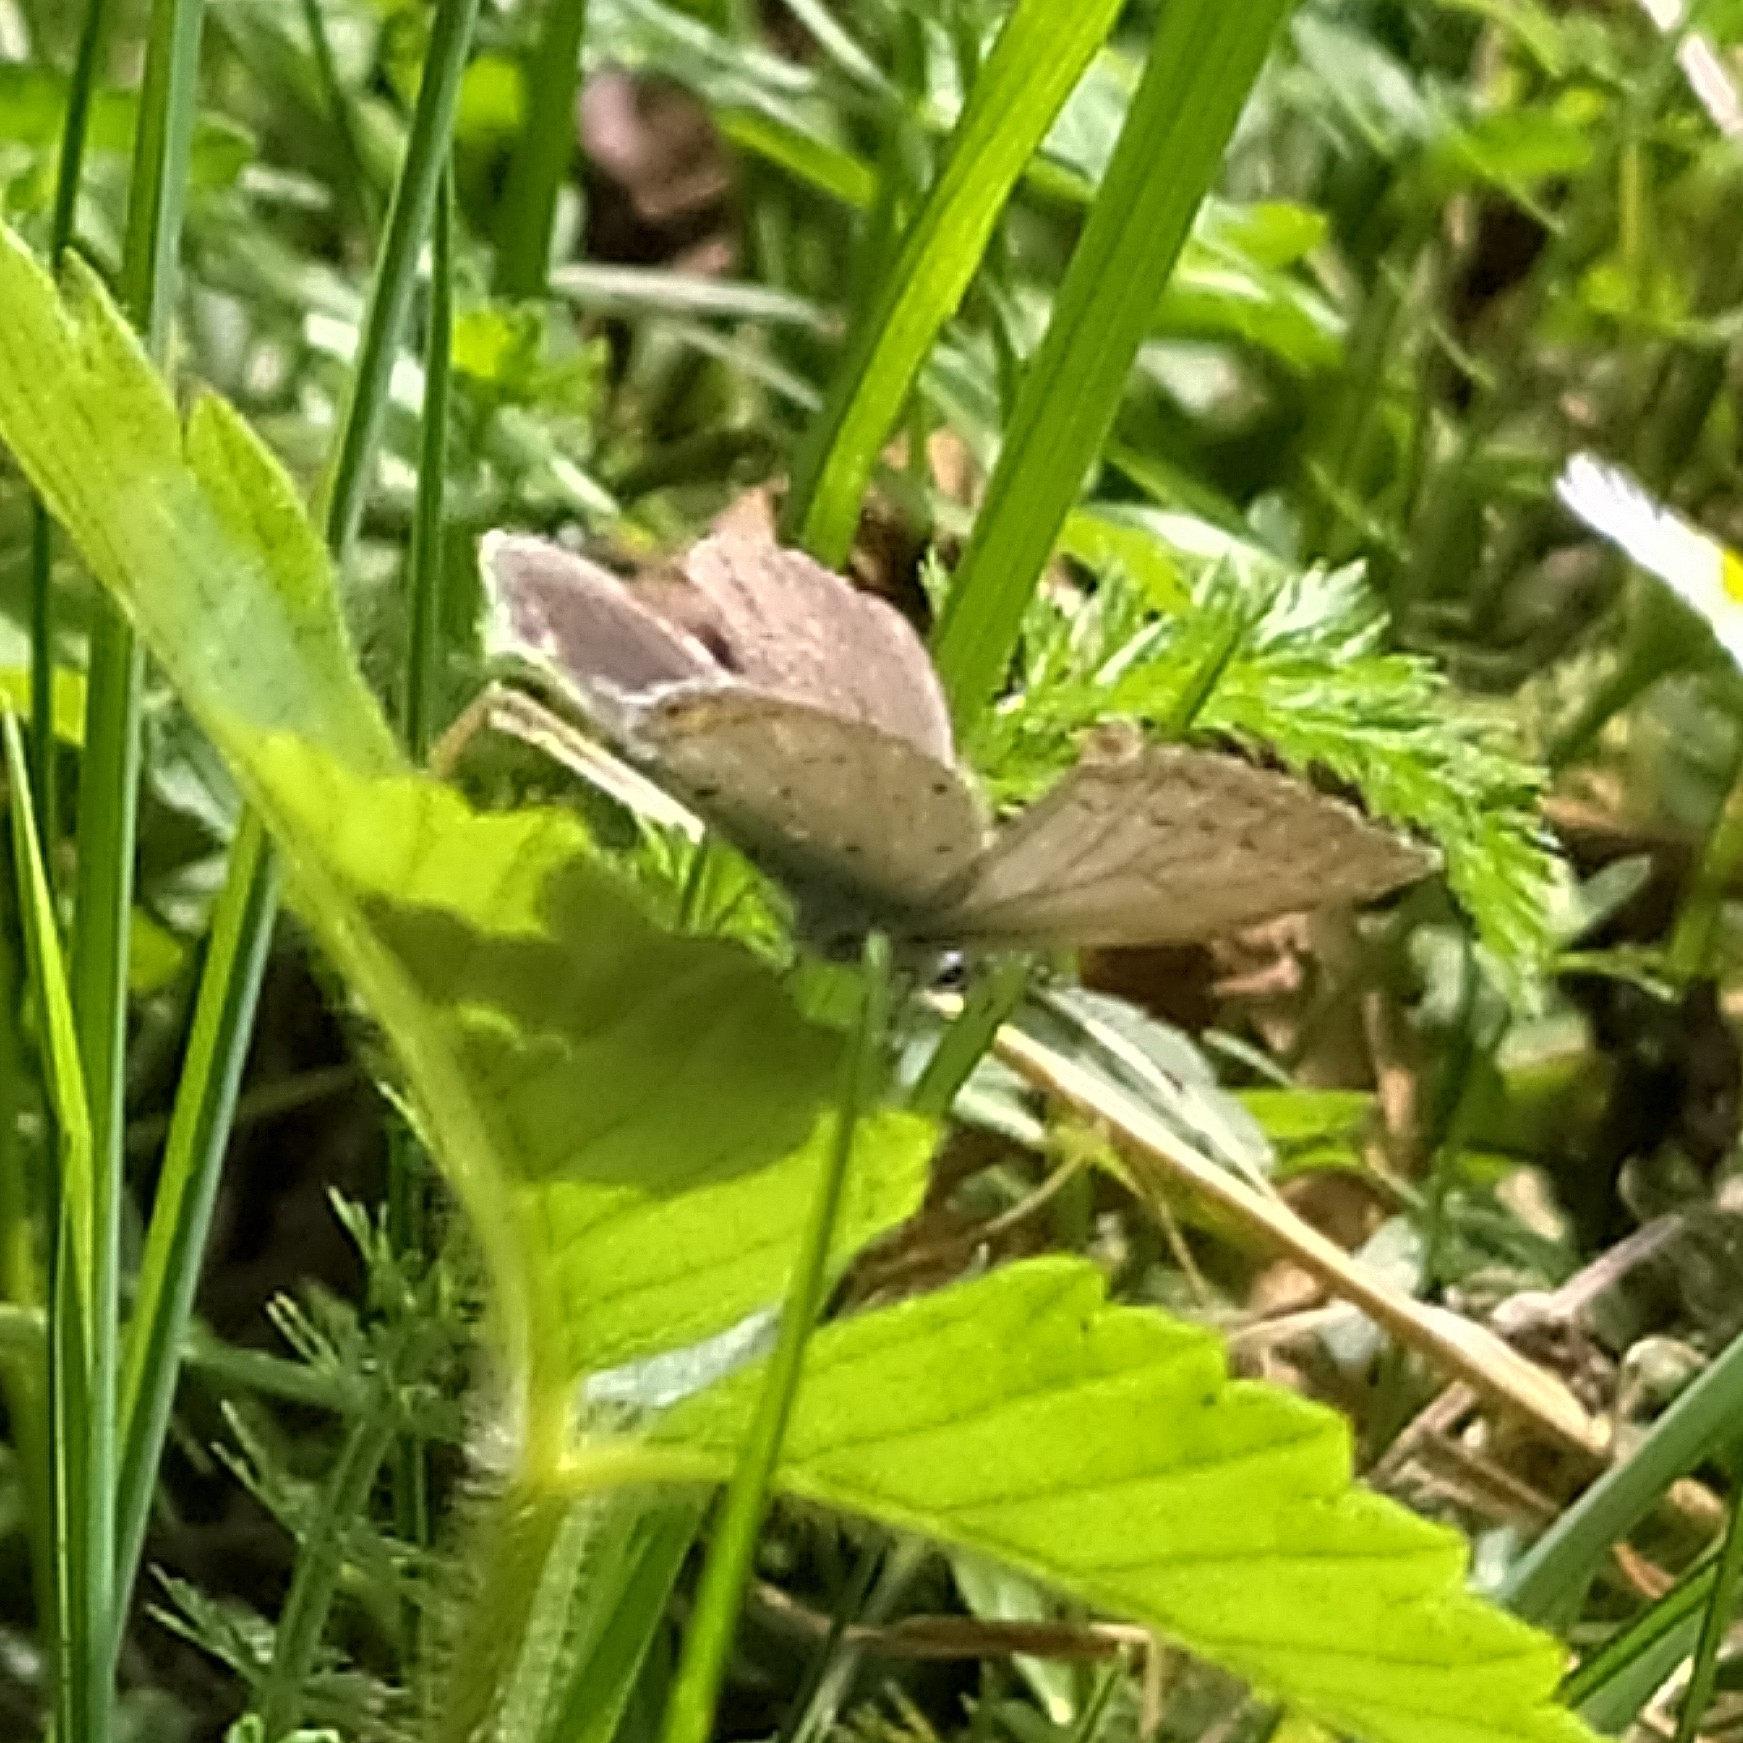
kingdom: Animalia
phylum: Arthropoda
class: Insecta
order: Lepidoptera
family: Lycaenidae
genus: Elkalyce
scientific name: Elkalyce argiades
